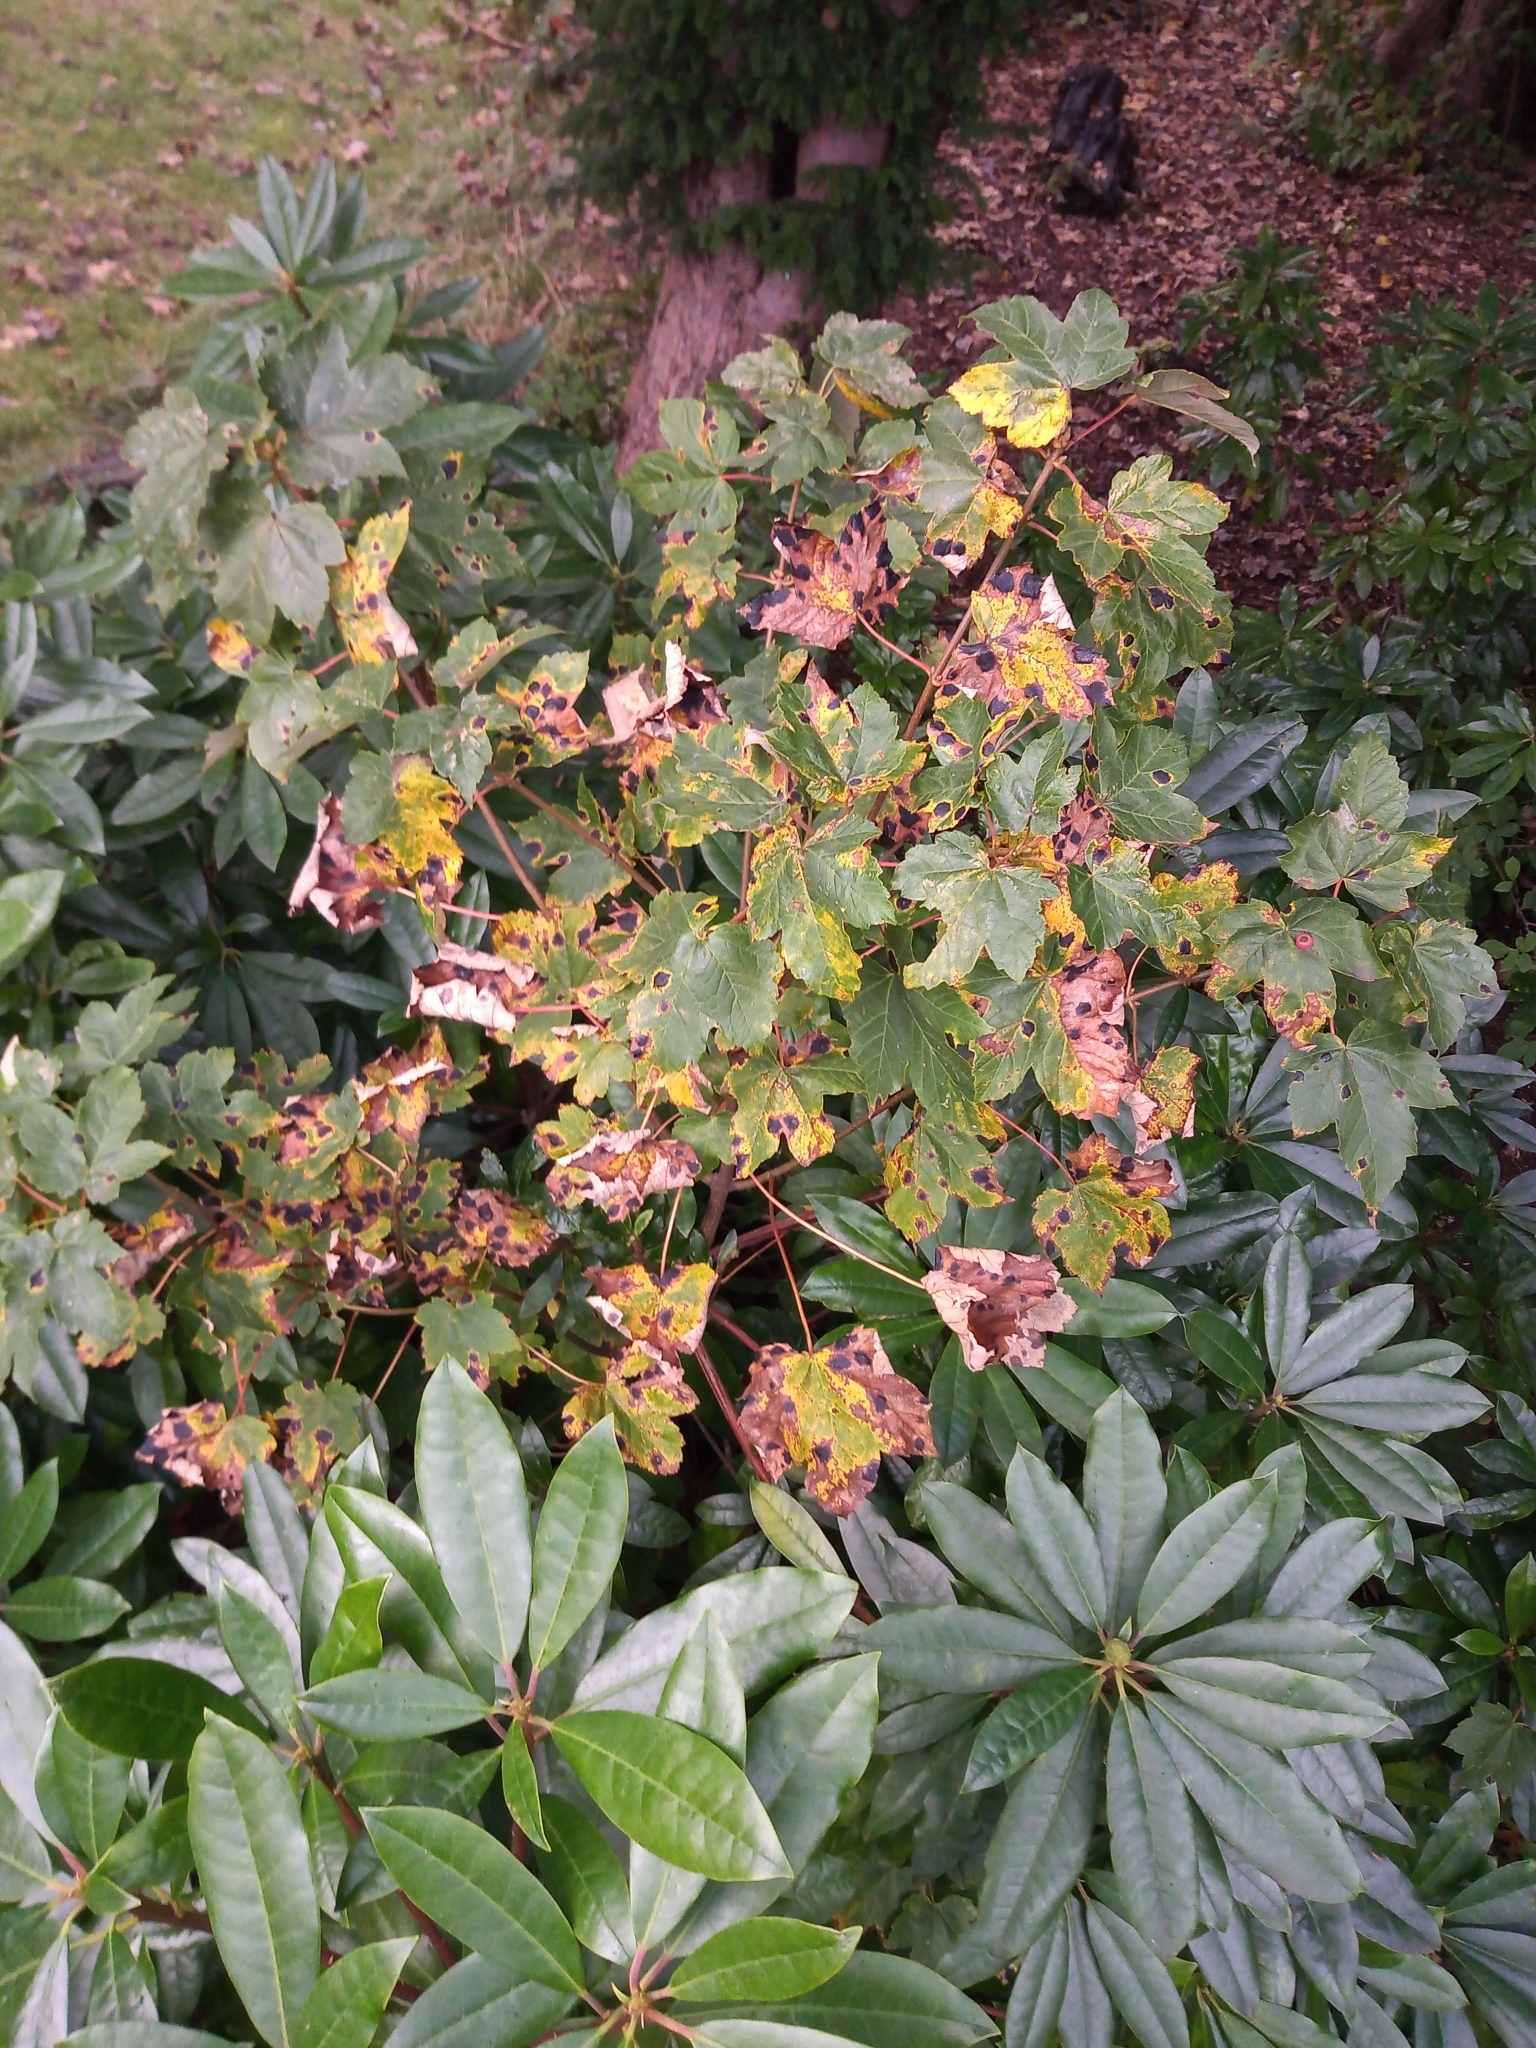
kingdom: Fungi
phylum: Ascomycota
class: Leotiomycetes
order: Rhytismatales
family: Rhytismataceae
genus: Rhytisma
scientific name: Rhytisma acerinum
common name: European tar spot
